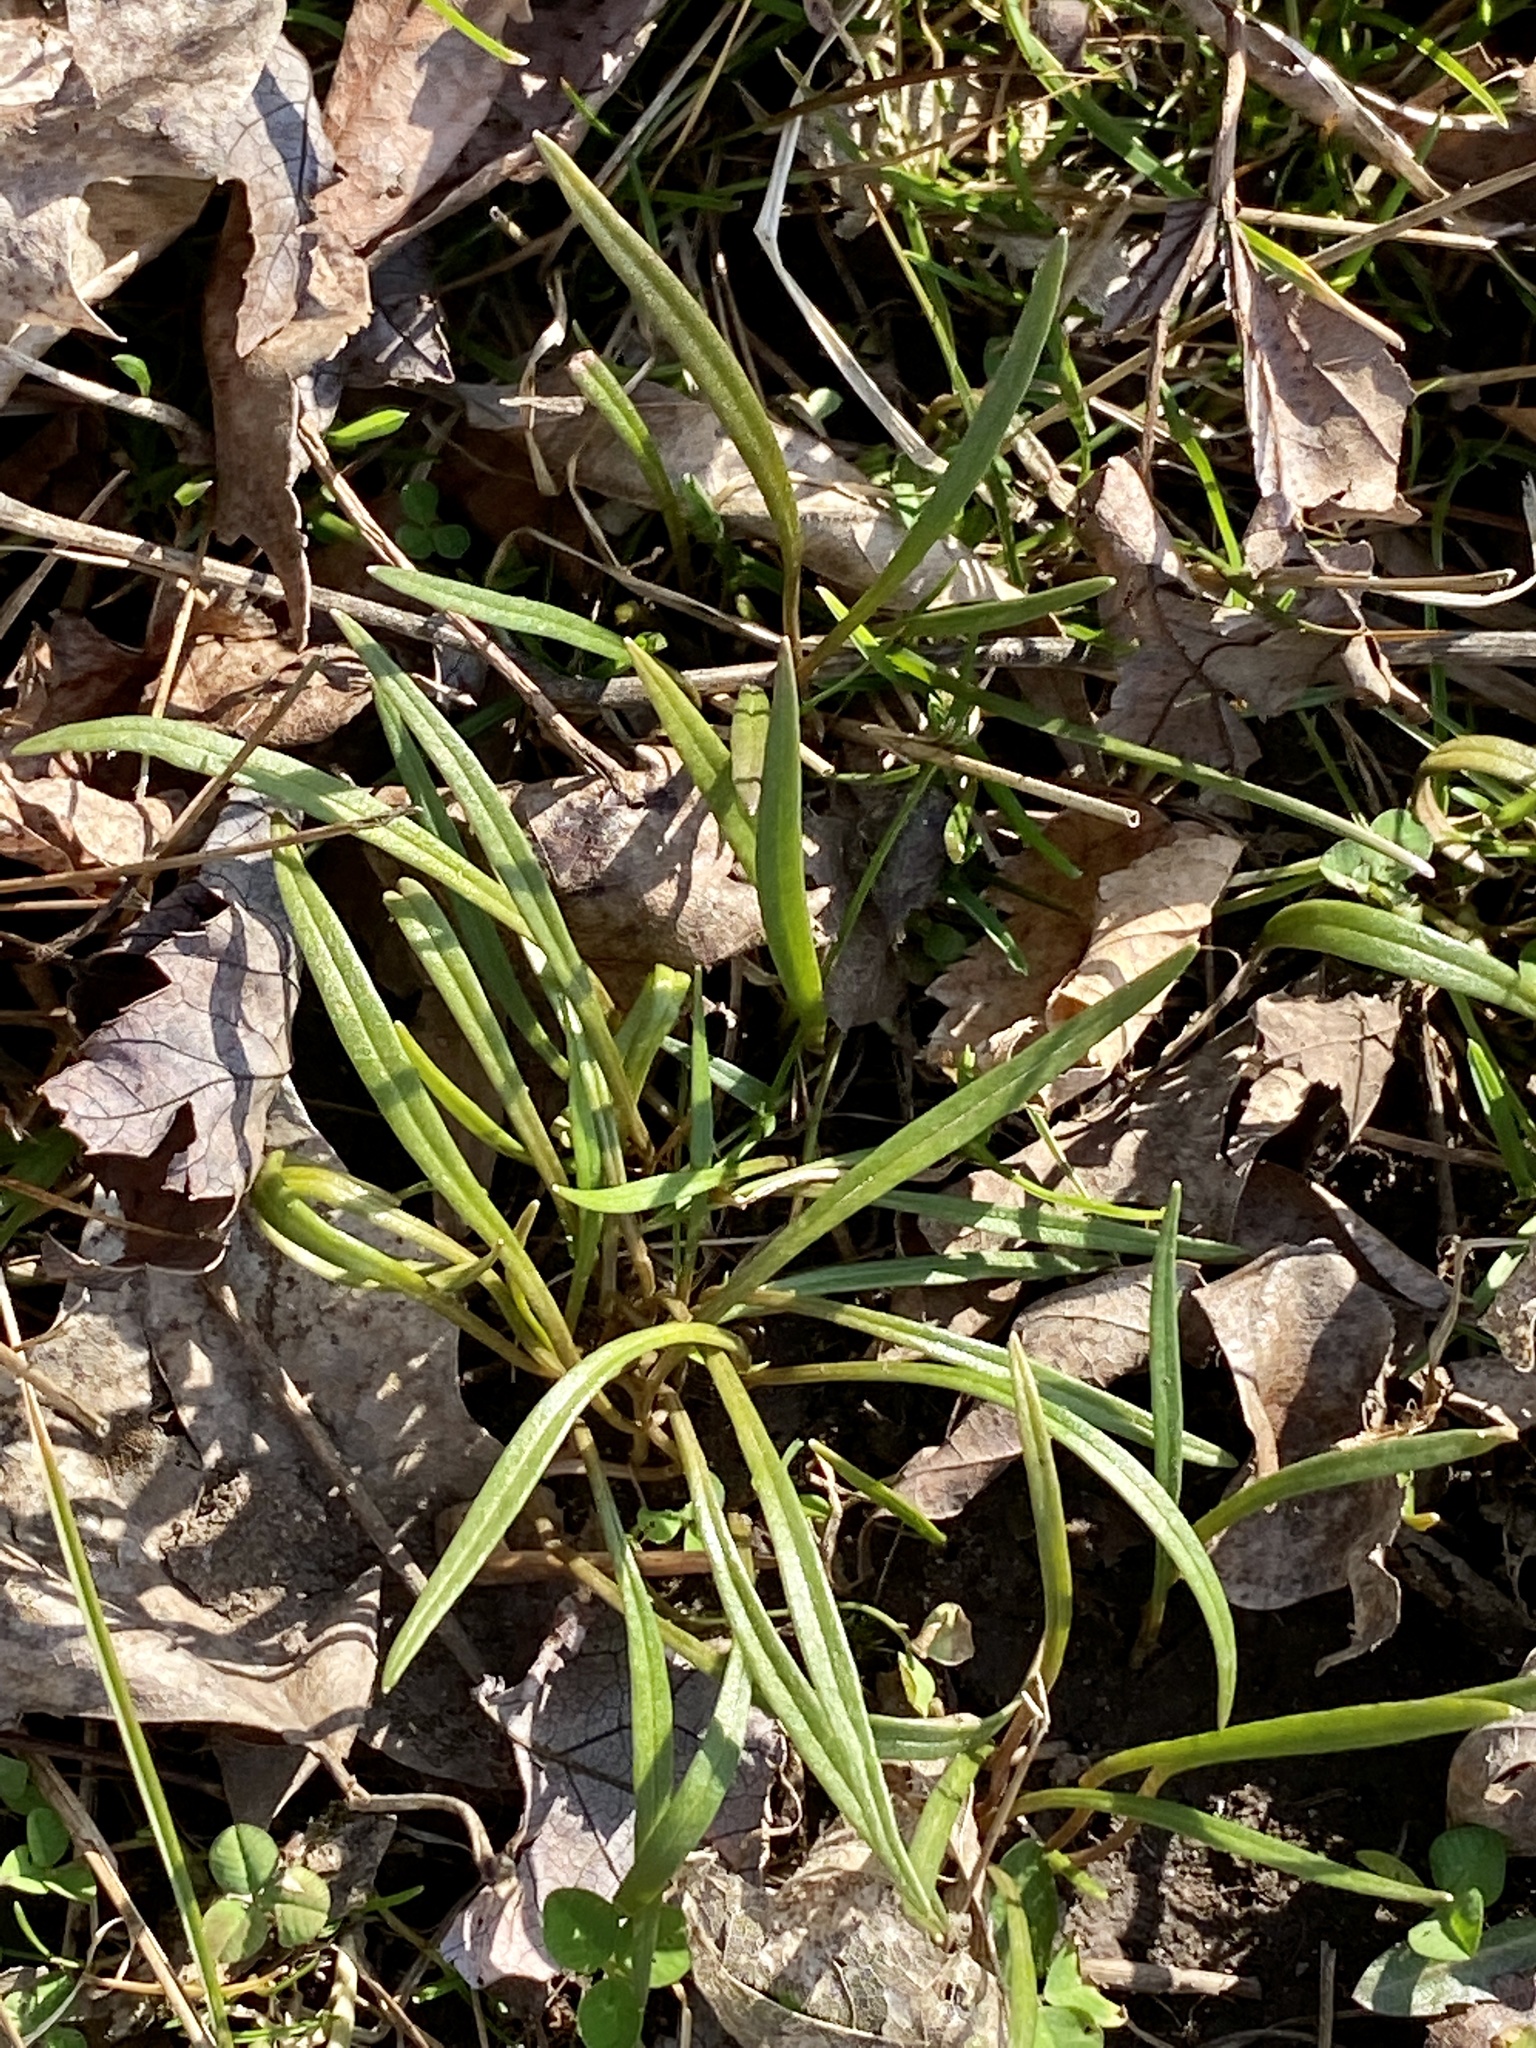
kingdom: Plantae
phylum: Tracheophyta
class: Magnoliopsida
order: Caryophyllales
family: Montiaceae
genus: Claytonia
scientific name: Claytonia virginica
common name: Virginia springbeauty
